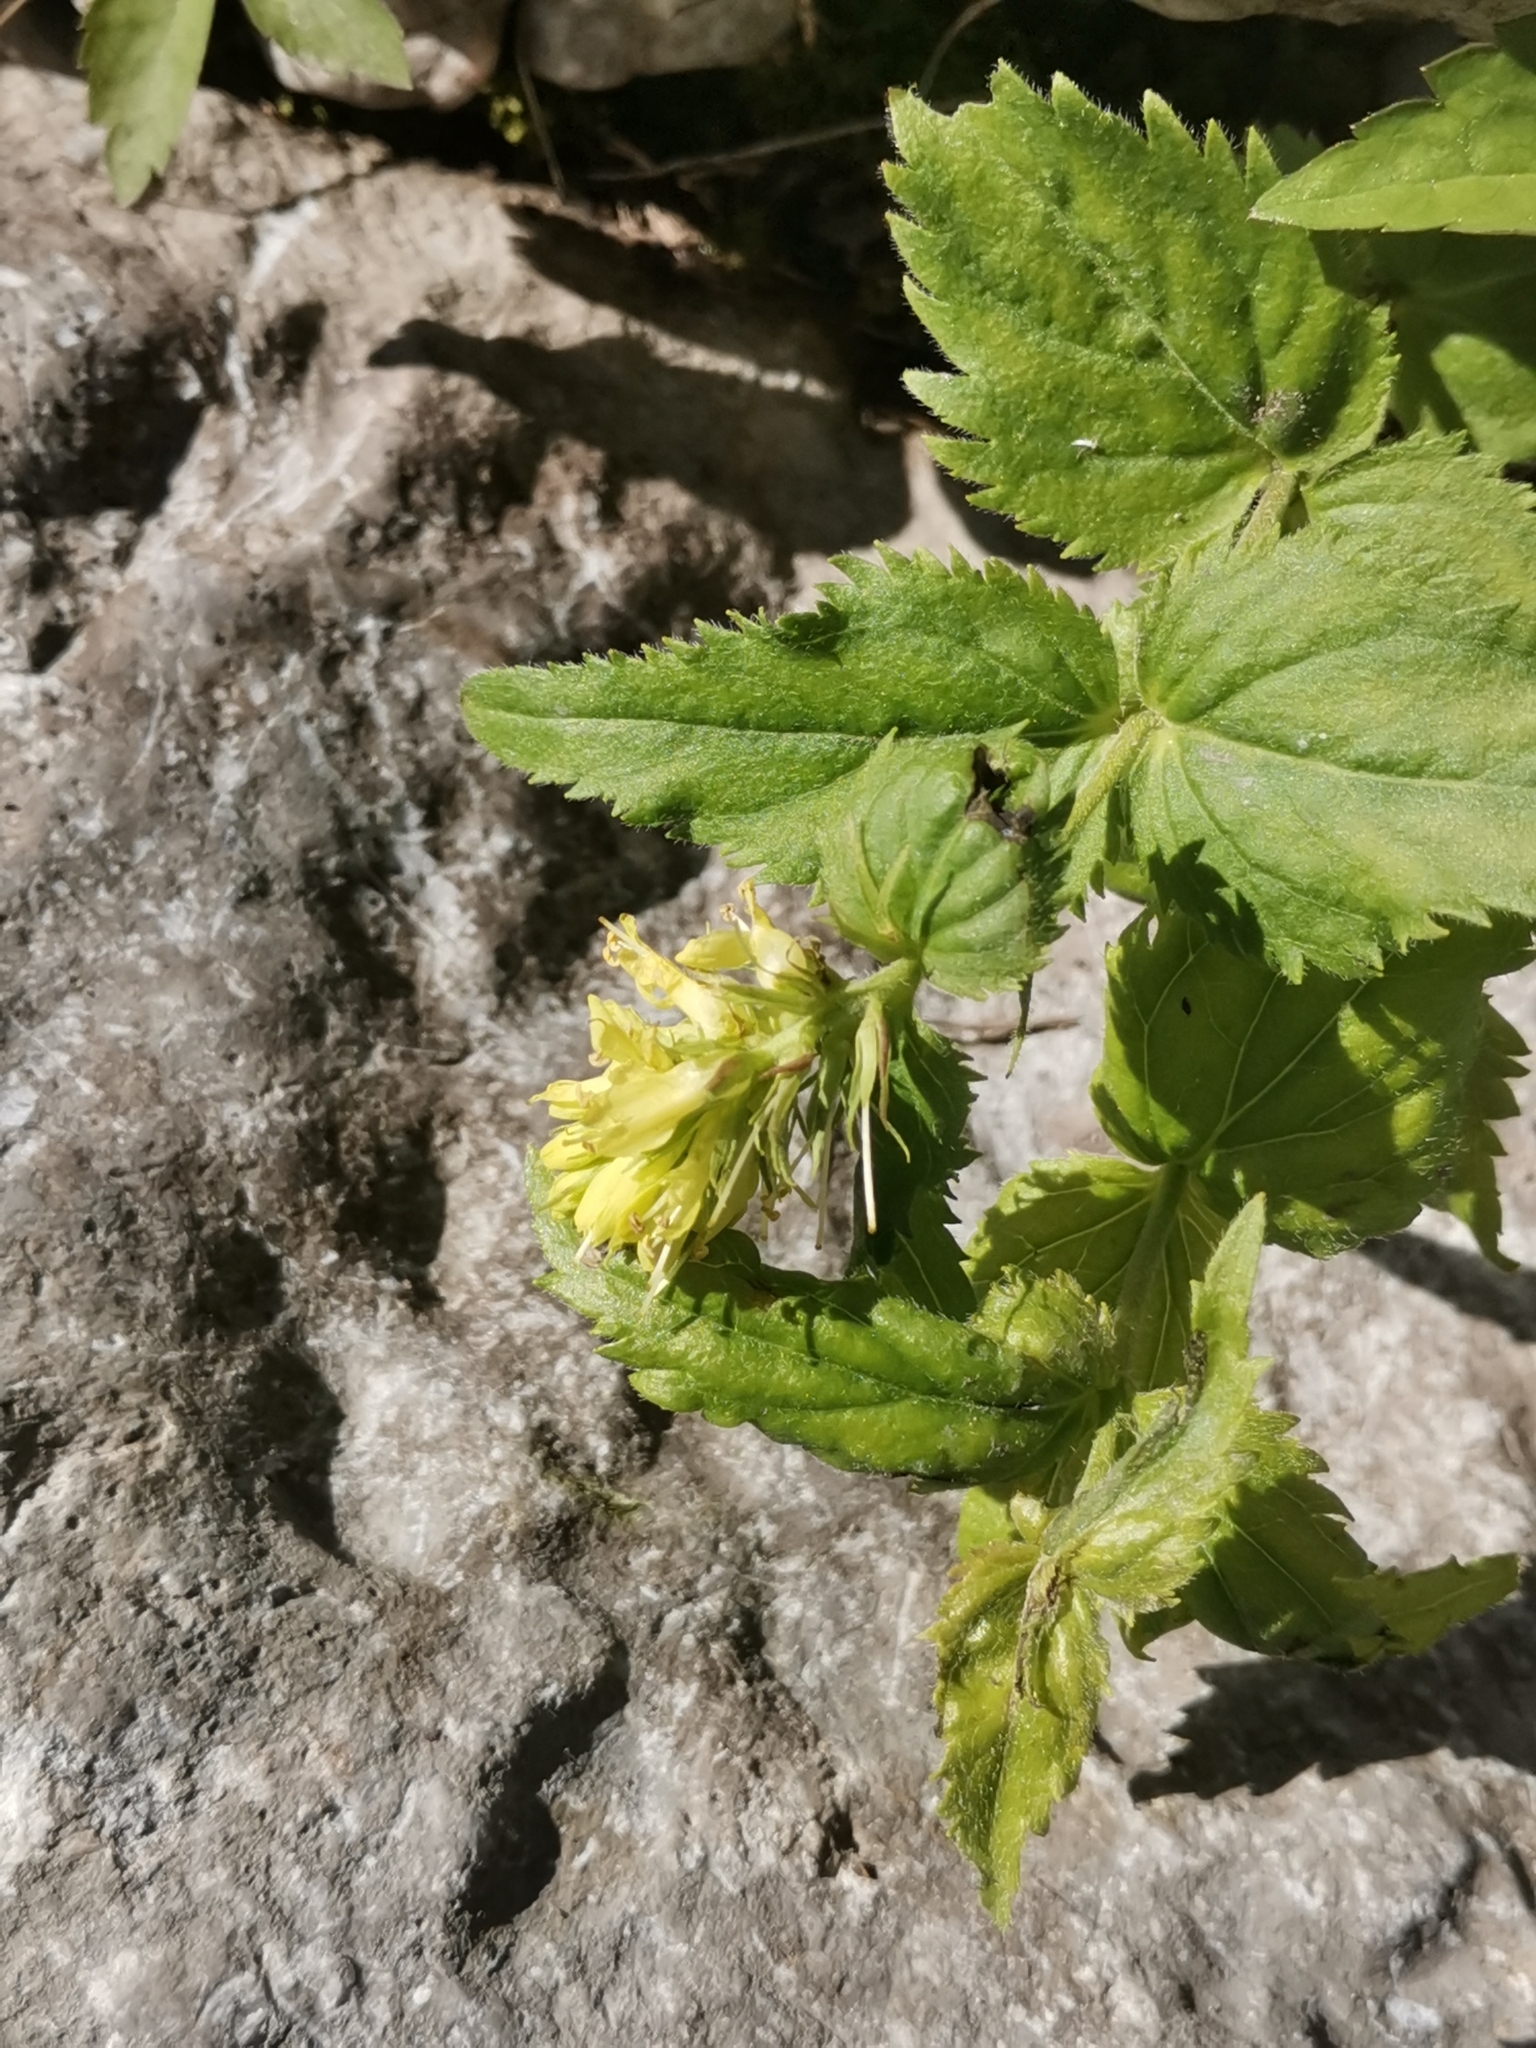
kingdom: Plantae
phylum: Tracheophyta
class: Magnoliopsida
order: Lamiales
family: Plantaginaceae
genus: Paederota
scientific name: Paederota lutea
